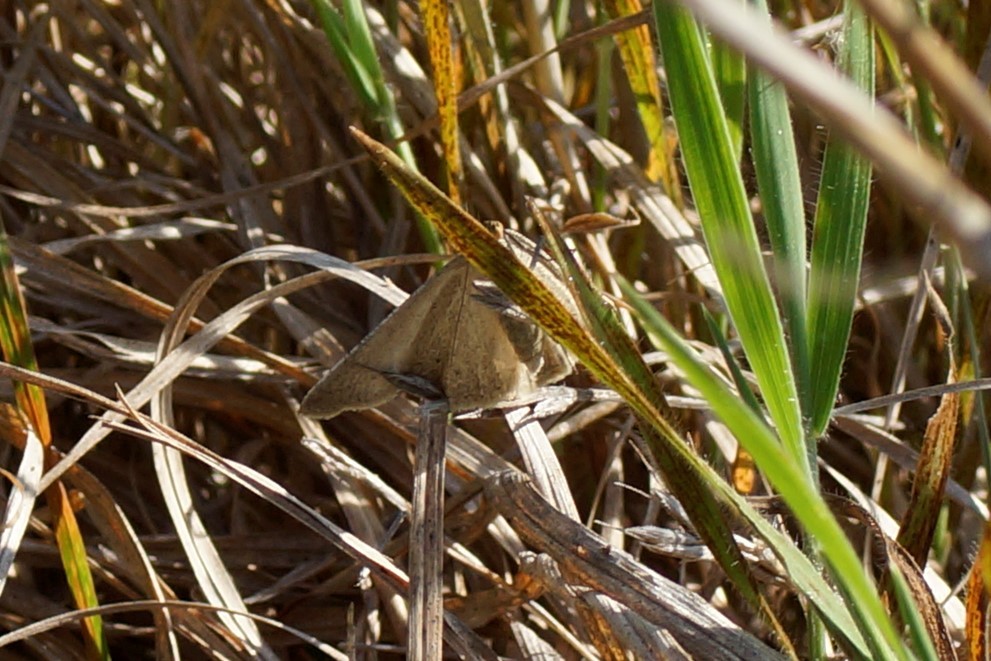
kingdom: Animalia
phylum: Arthropoda
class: Insecta
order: Lepidoptera
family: Geometridae
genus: Neritodes
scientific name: Neritodes verrucata
